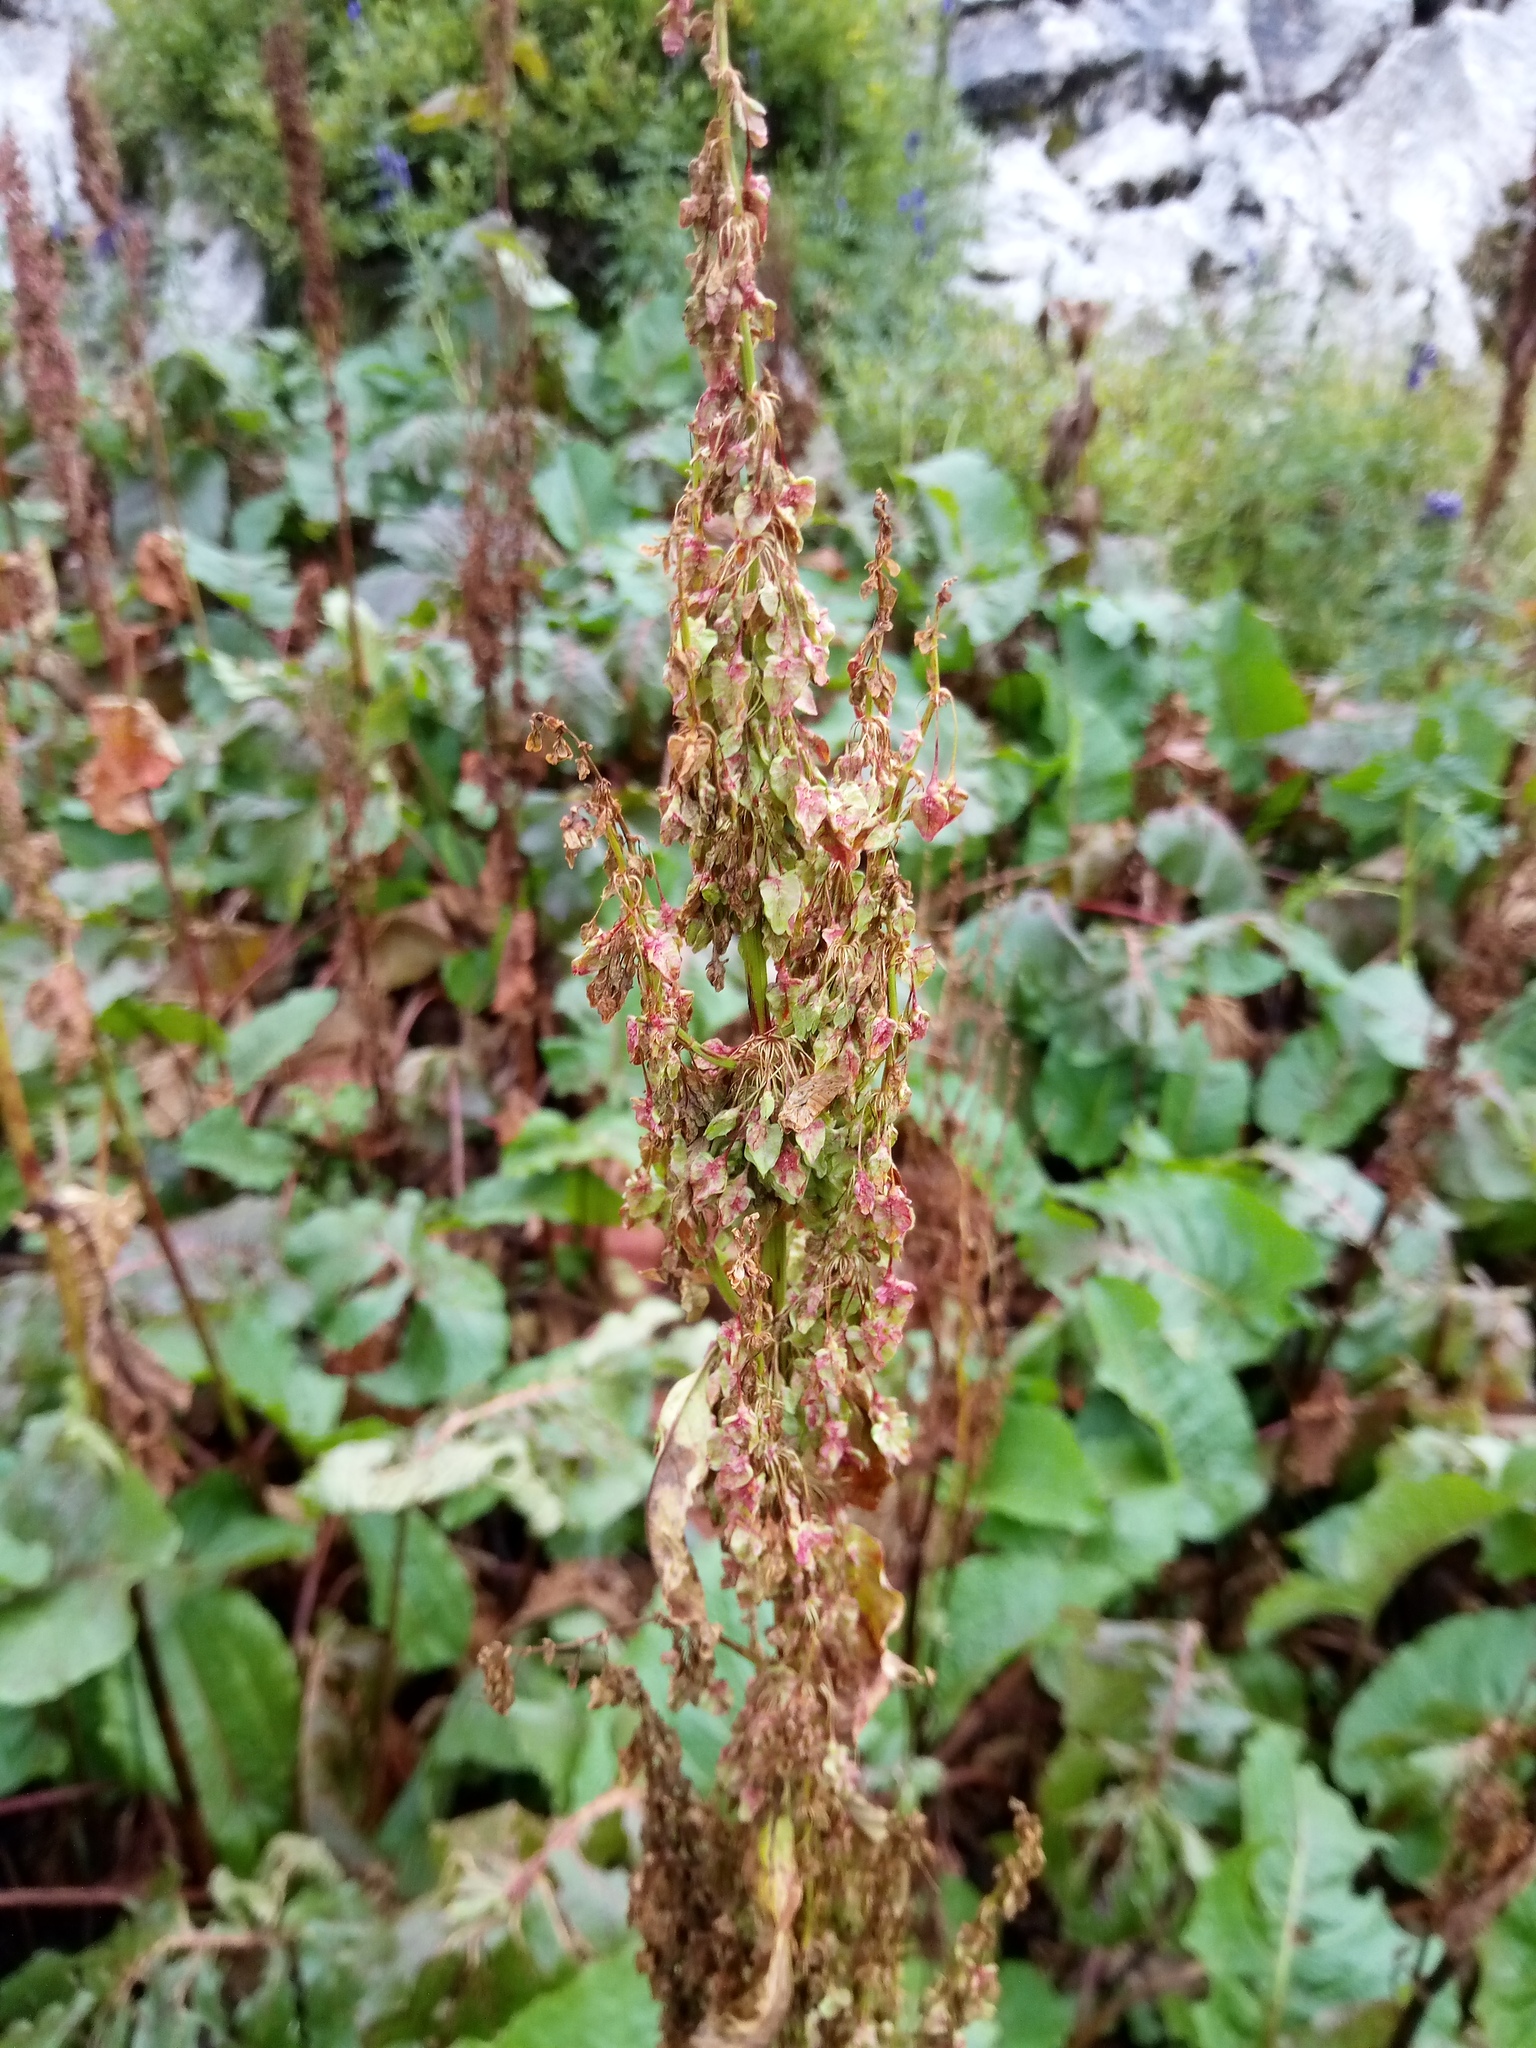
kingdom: Plantae
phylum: Tracheophyta
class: Magnoliopsida
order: Caryophyllales
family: Polygonaceae
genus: Rumex
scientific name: Rumex alpinus
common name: Alpine dock
